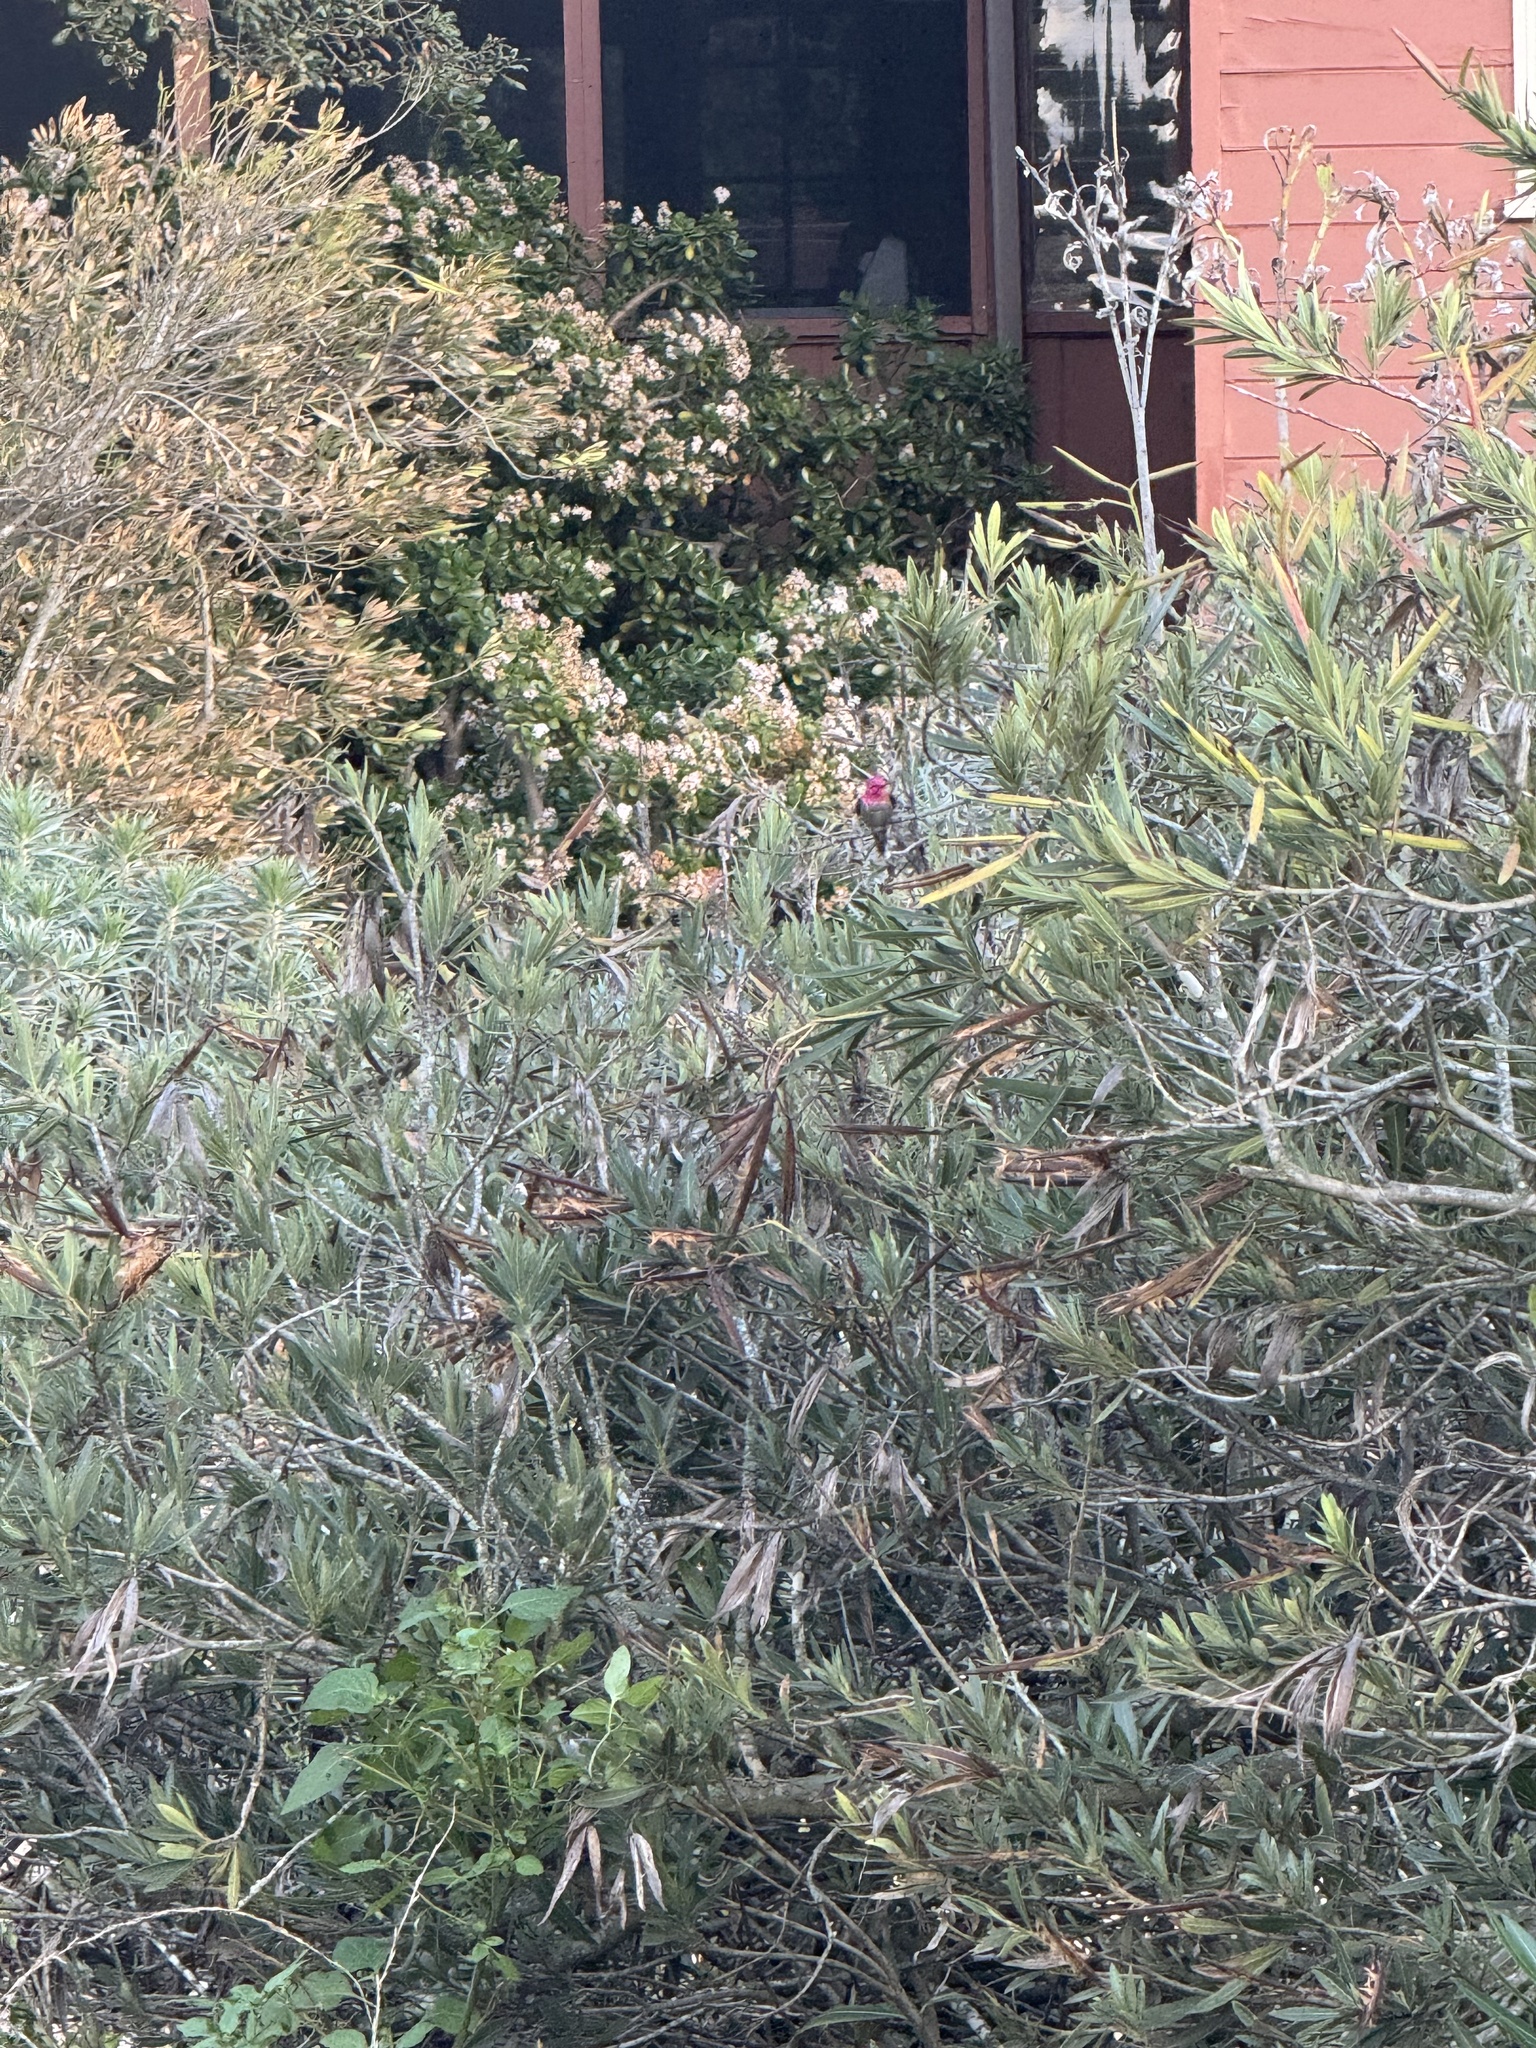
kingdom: Animalia
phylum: Chordata
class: Aves
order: Apodiformes
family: Trochilidae
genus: Calypte
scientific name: Calypte anna
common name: Anna's hummingbird
